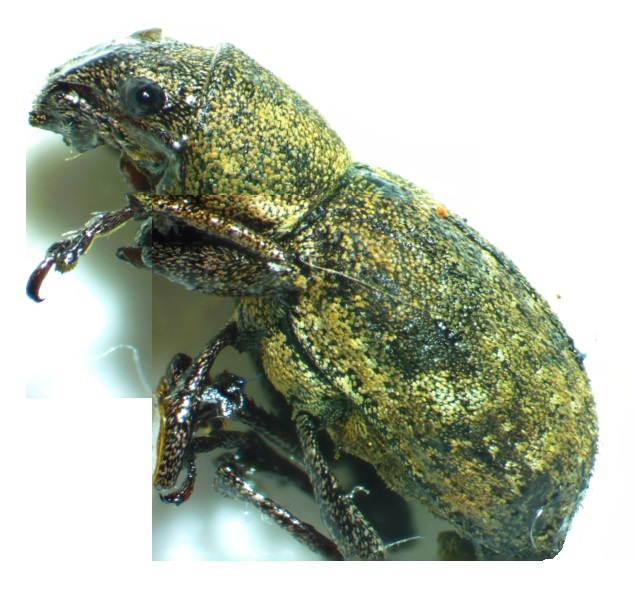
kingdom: Animalia
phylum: Arthropoda
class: Insecta
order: Coleoptera
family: Curculionidae
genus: Naupactus
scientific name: Naupactus cervinus
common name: Fuller rose beetle
